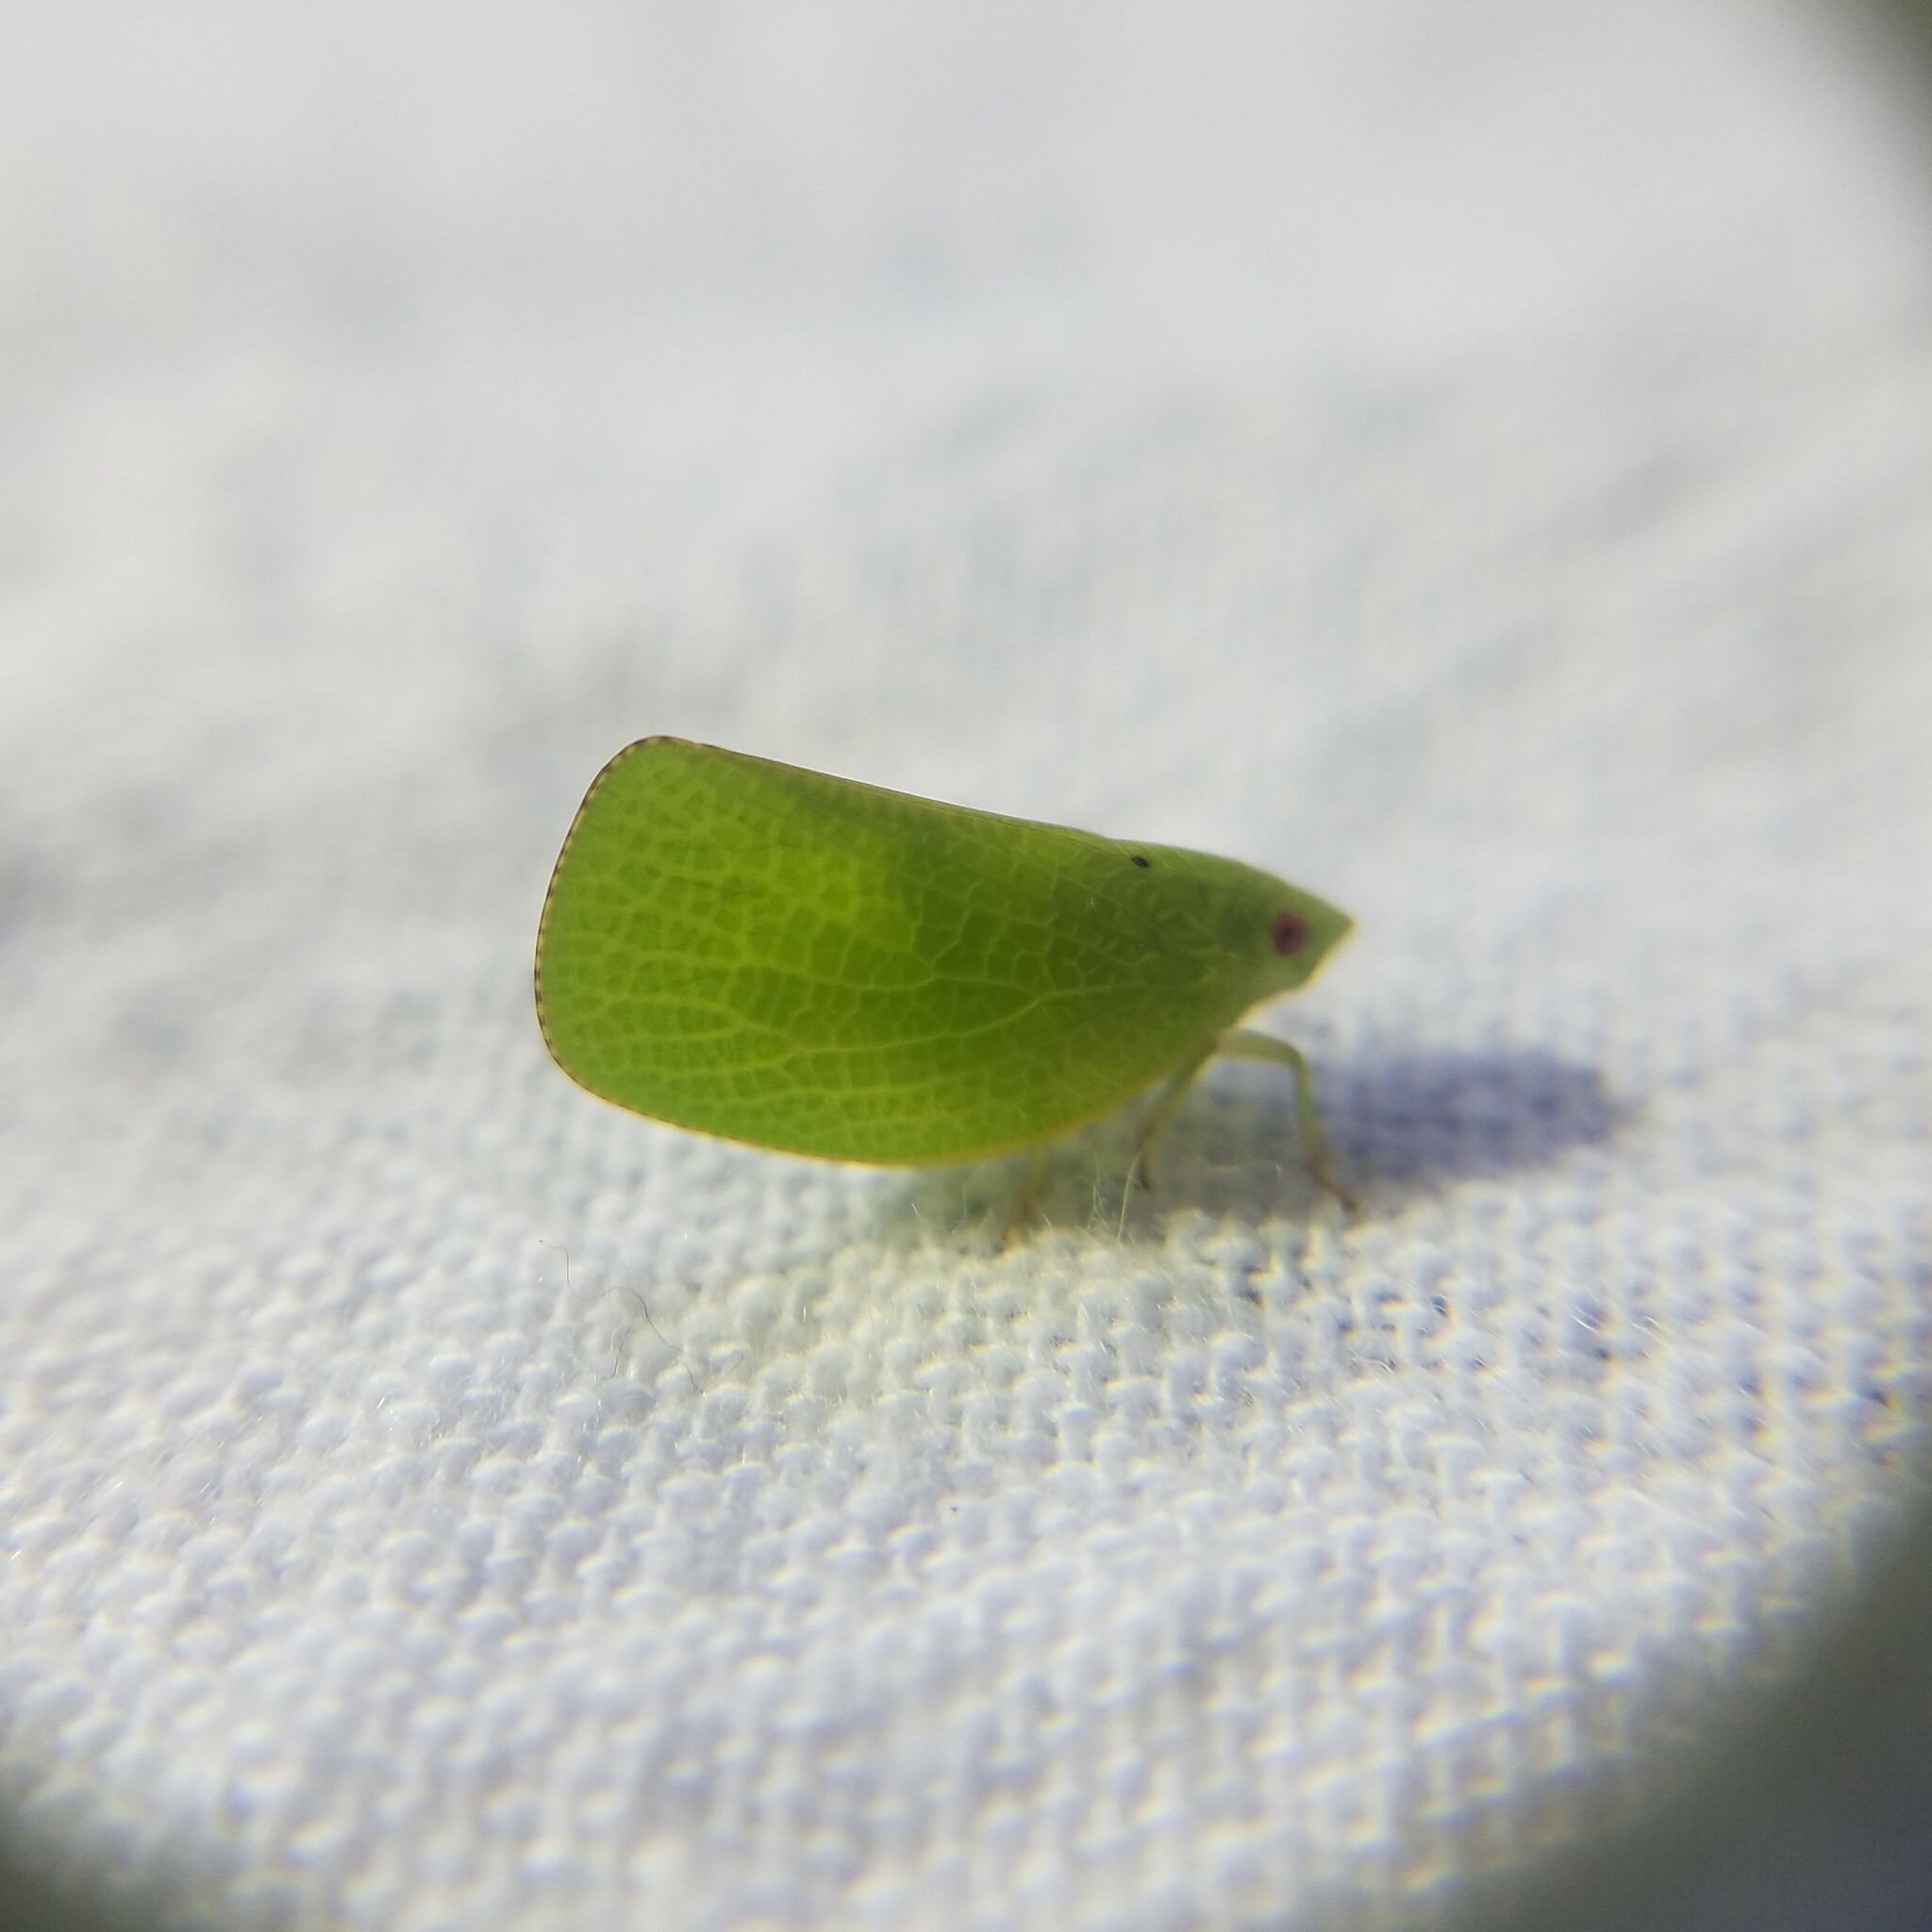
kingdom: Animalia
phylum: Arthropoda
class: Insecta
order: Hemiptera
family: Acanaloniidae
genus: Acanalonia
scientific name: Acanalonia conica
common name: Green cone-headed planthopper
